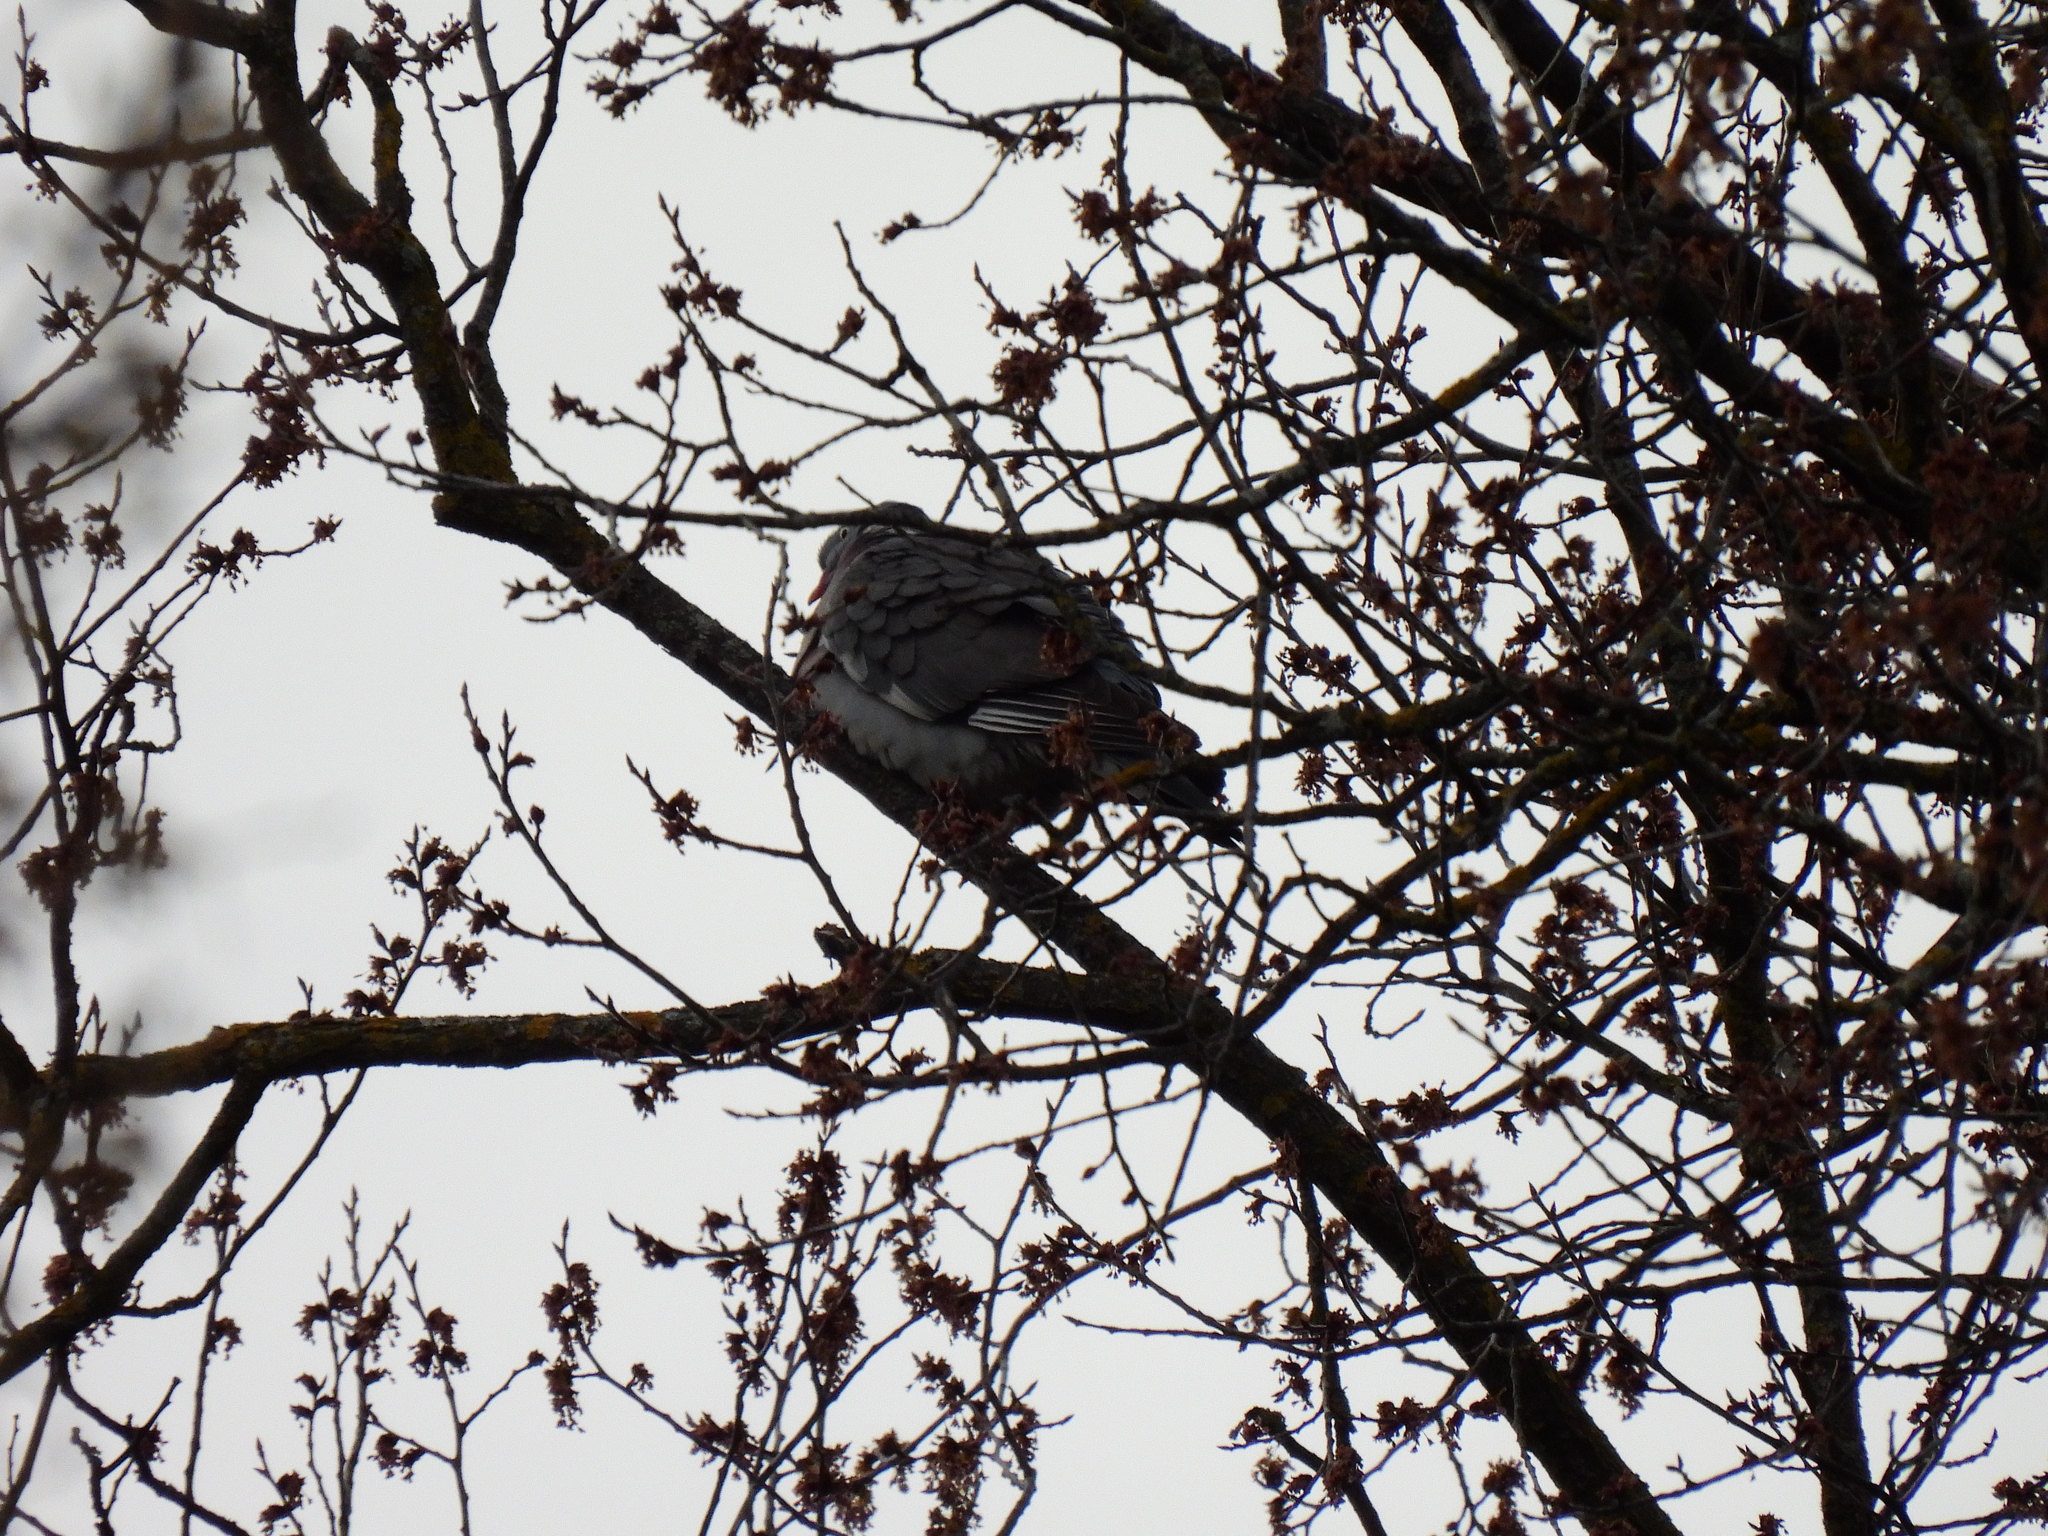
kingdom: Animalia
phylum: Chordata
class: Aves
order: Columbiformes
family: Columbidae
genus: Columba
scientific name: Columba palumbus
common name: Common wood pigeon
